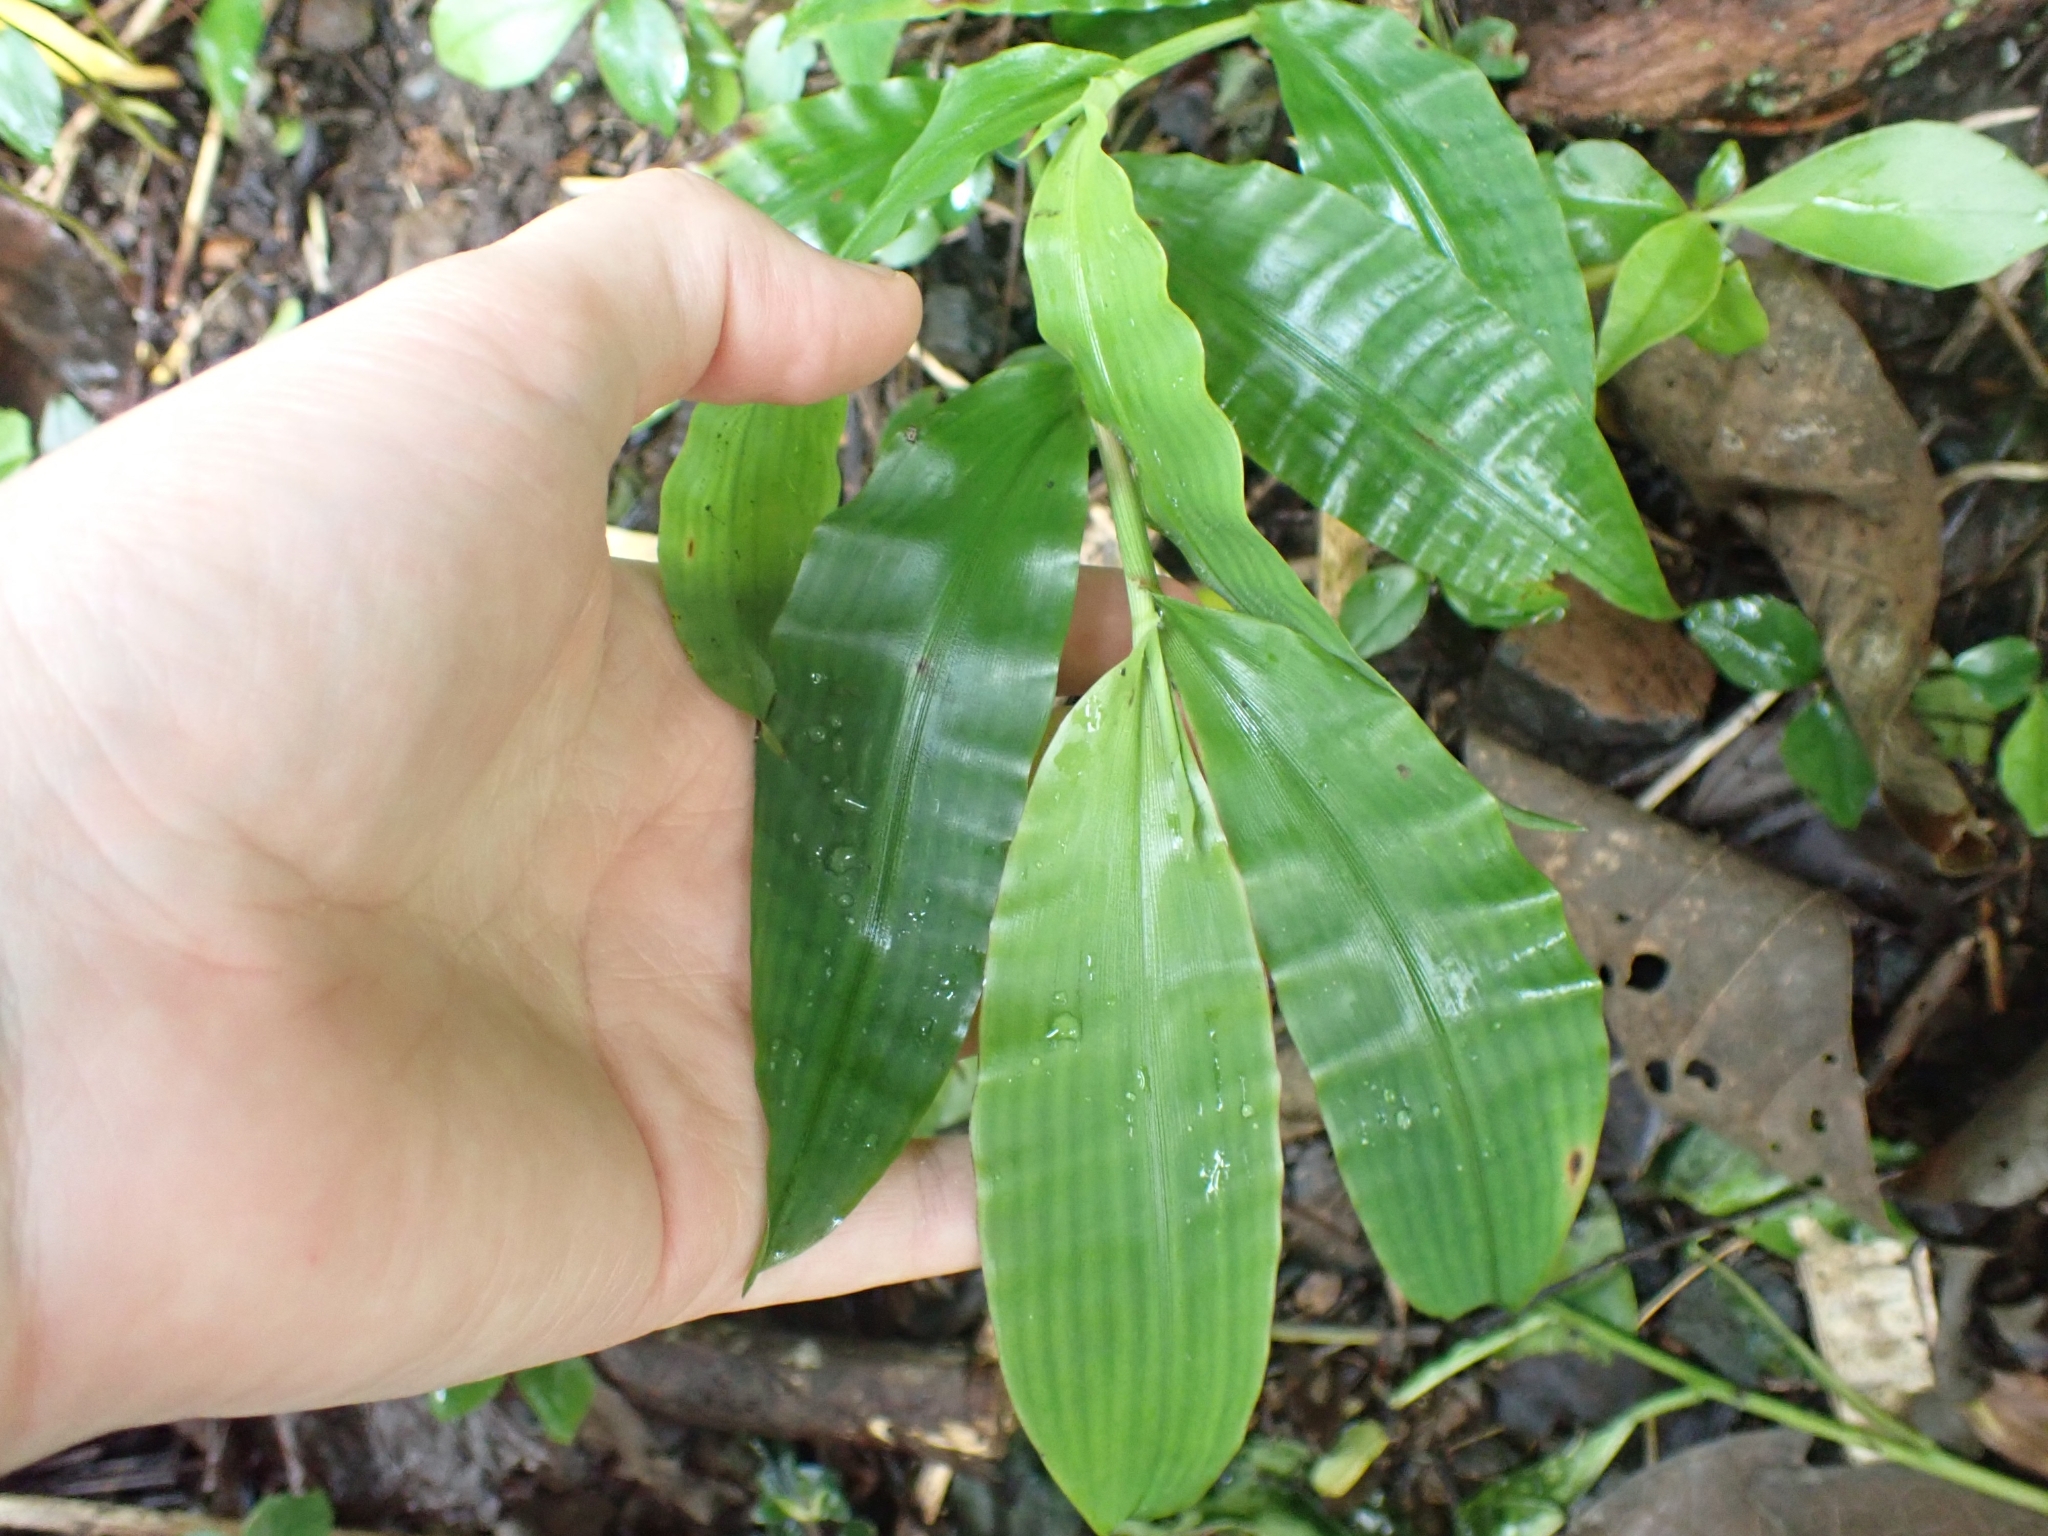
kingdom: Plantae
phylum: Tracheophyta
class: Liliopsida
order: Poales
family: Poaceae
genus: Centotheca
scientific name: Centotheca lappacea
